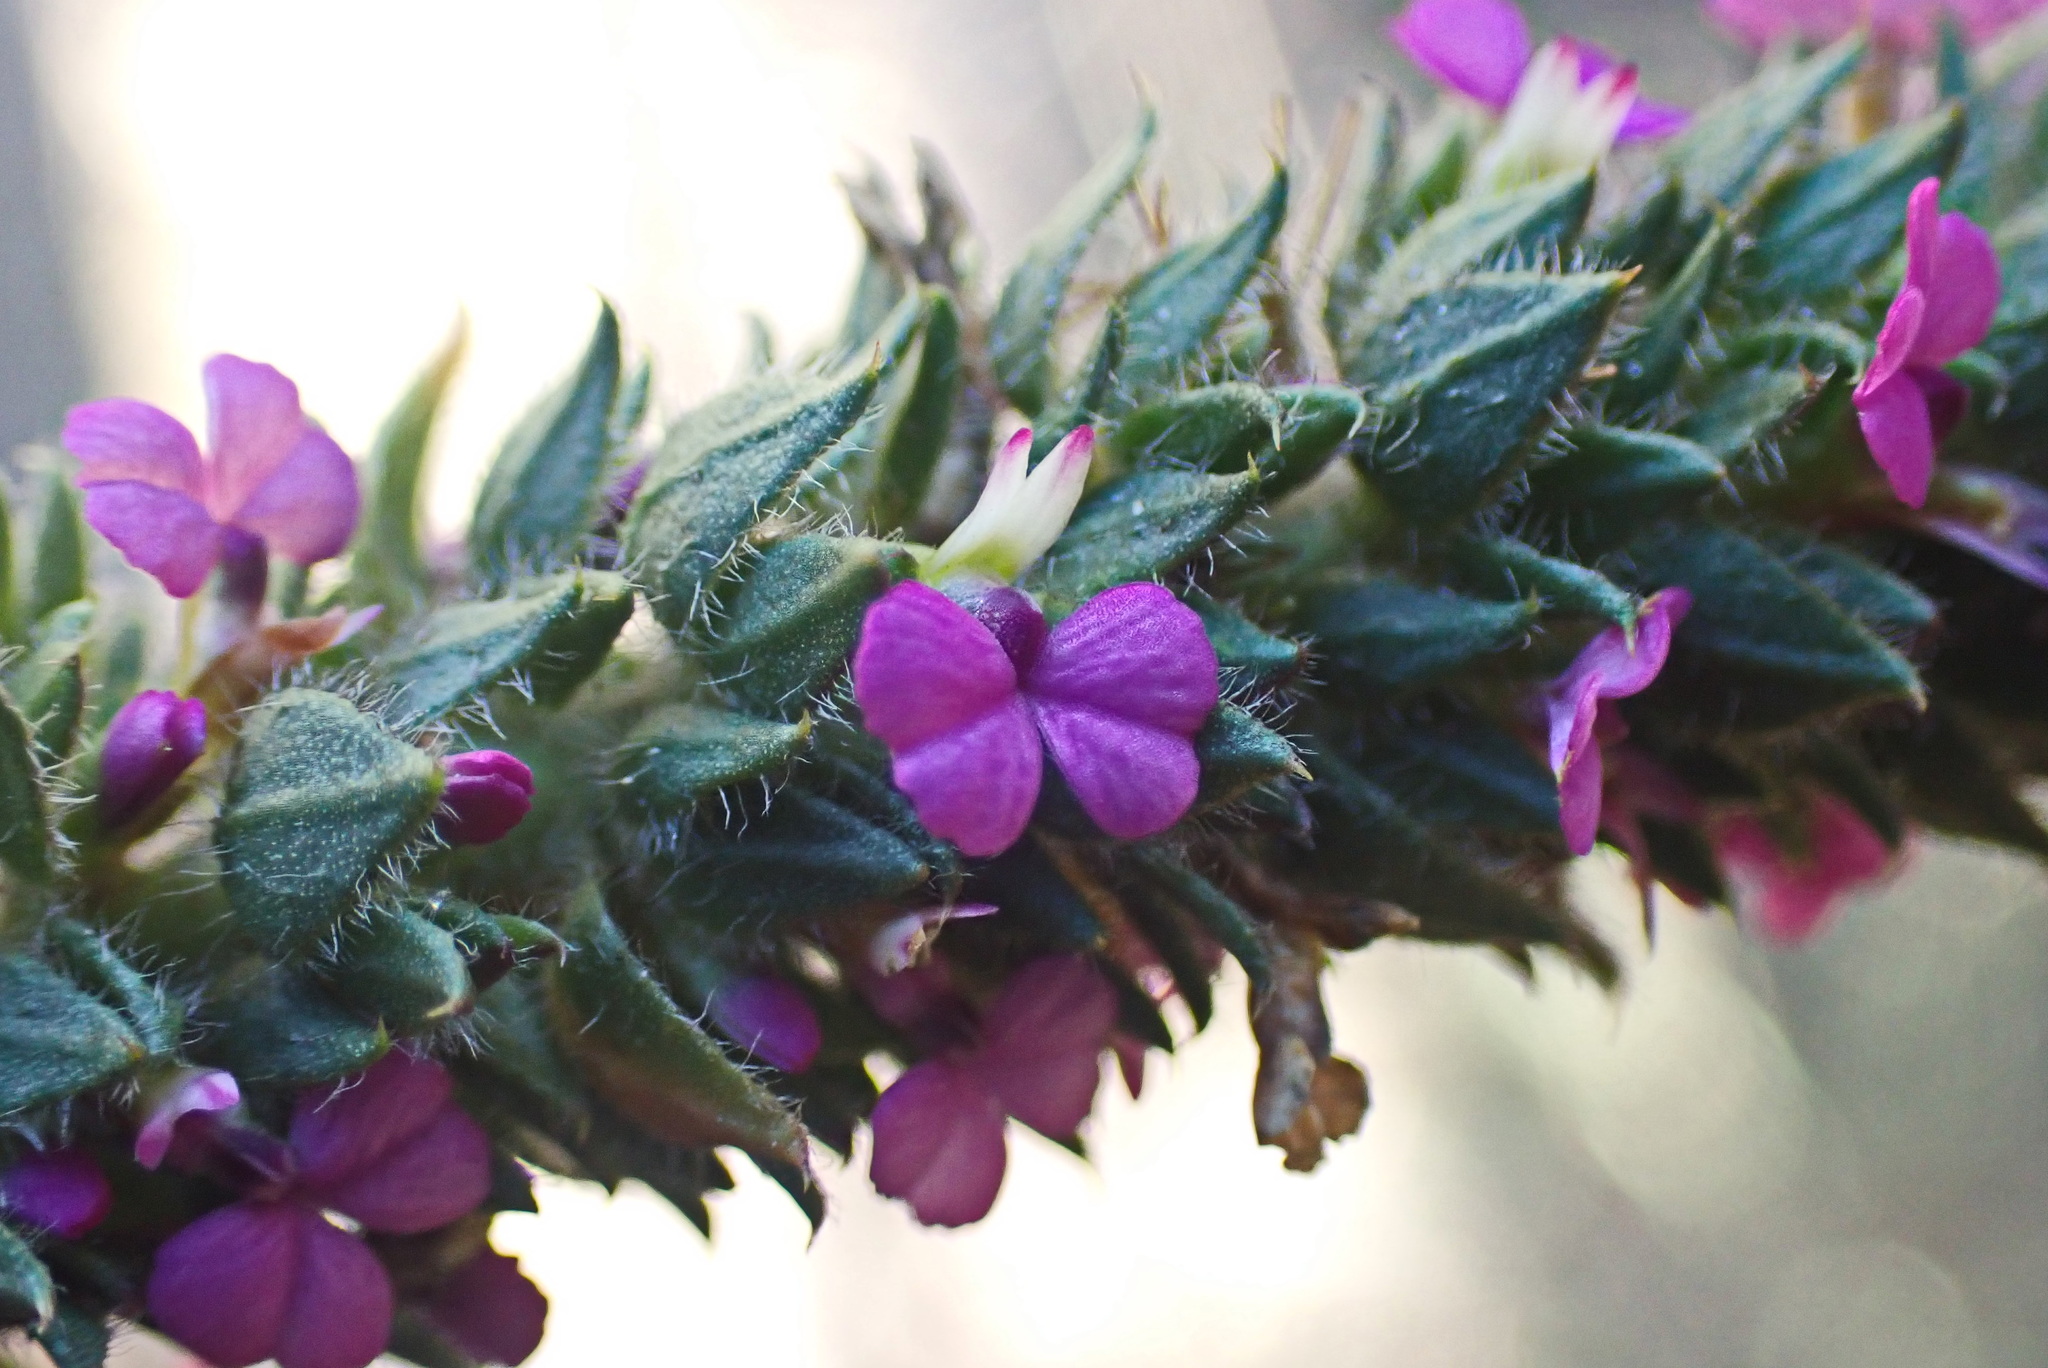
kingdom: Plantae
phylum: Tracheophyta
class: Magnoliopsida
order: Fabales
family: Polygalaceae
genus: Muraltia
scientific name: Muraltia alopecuroides
